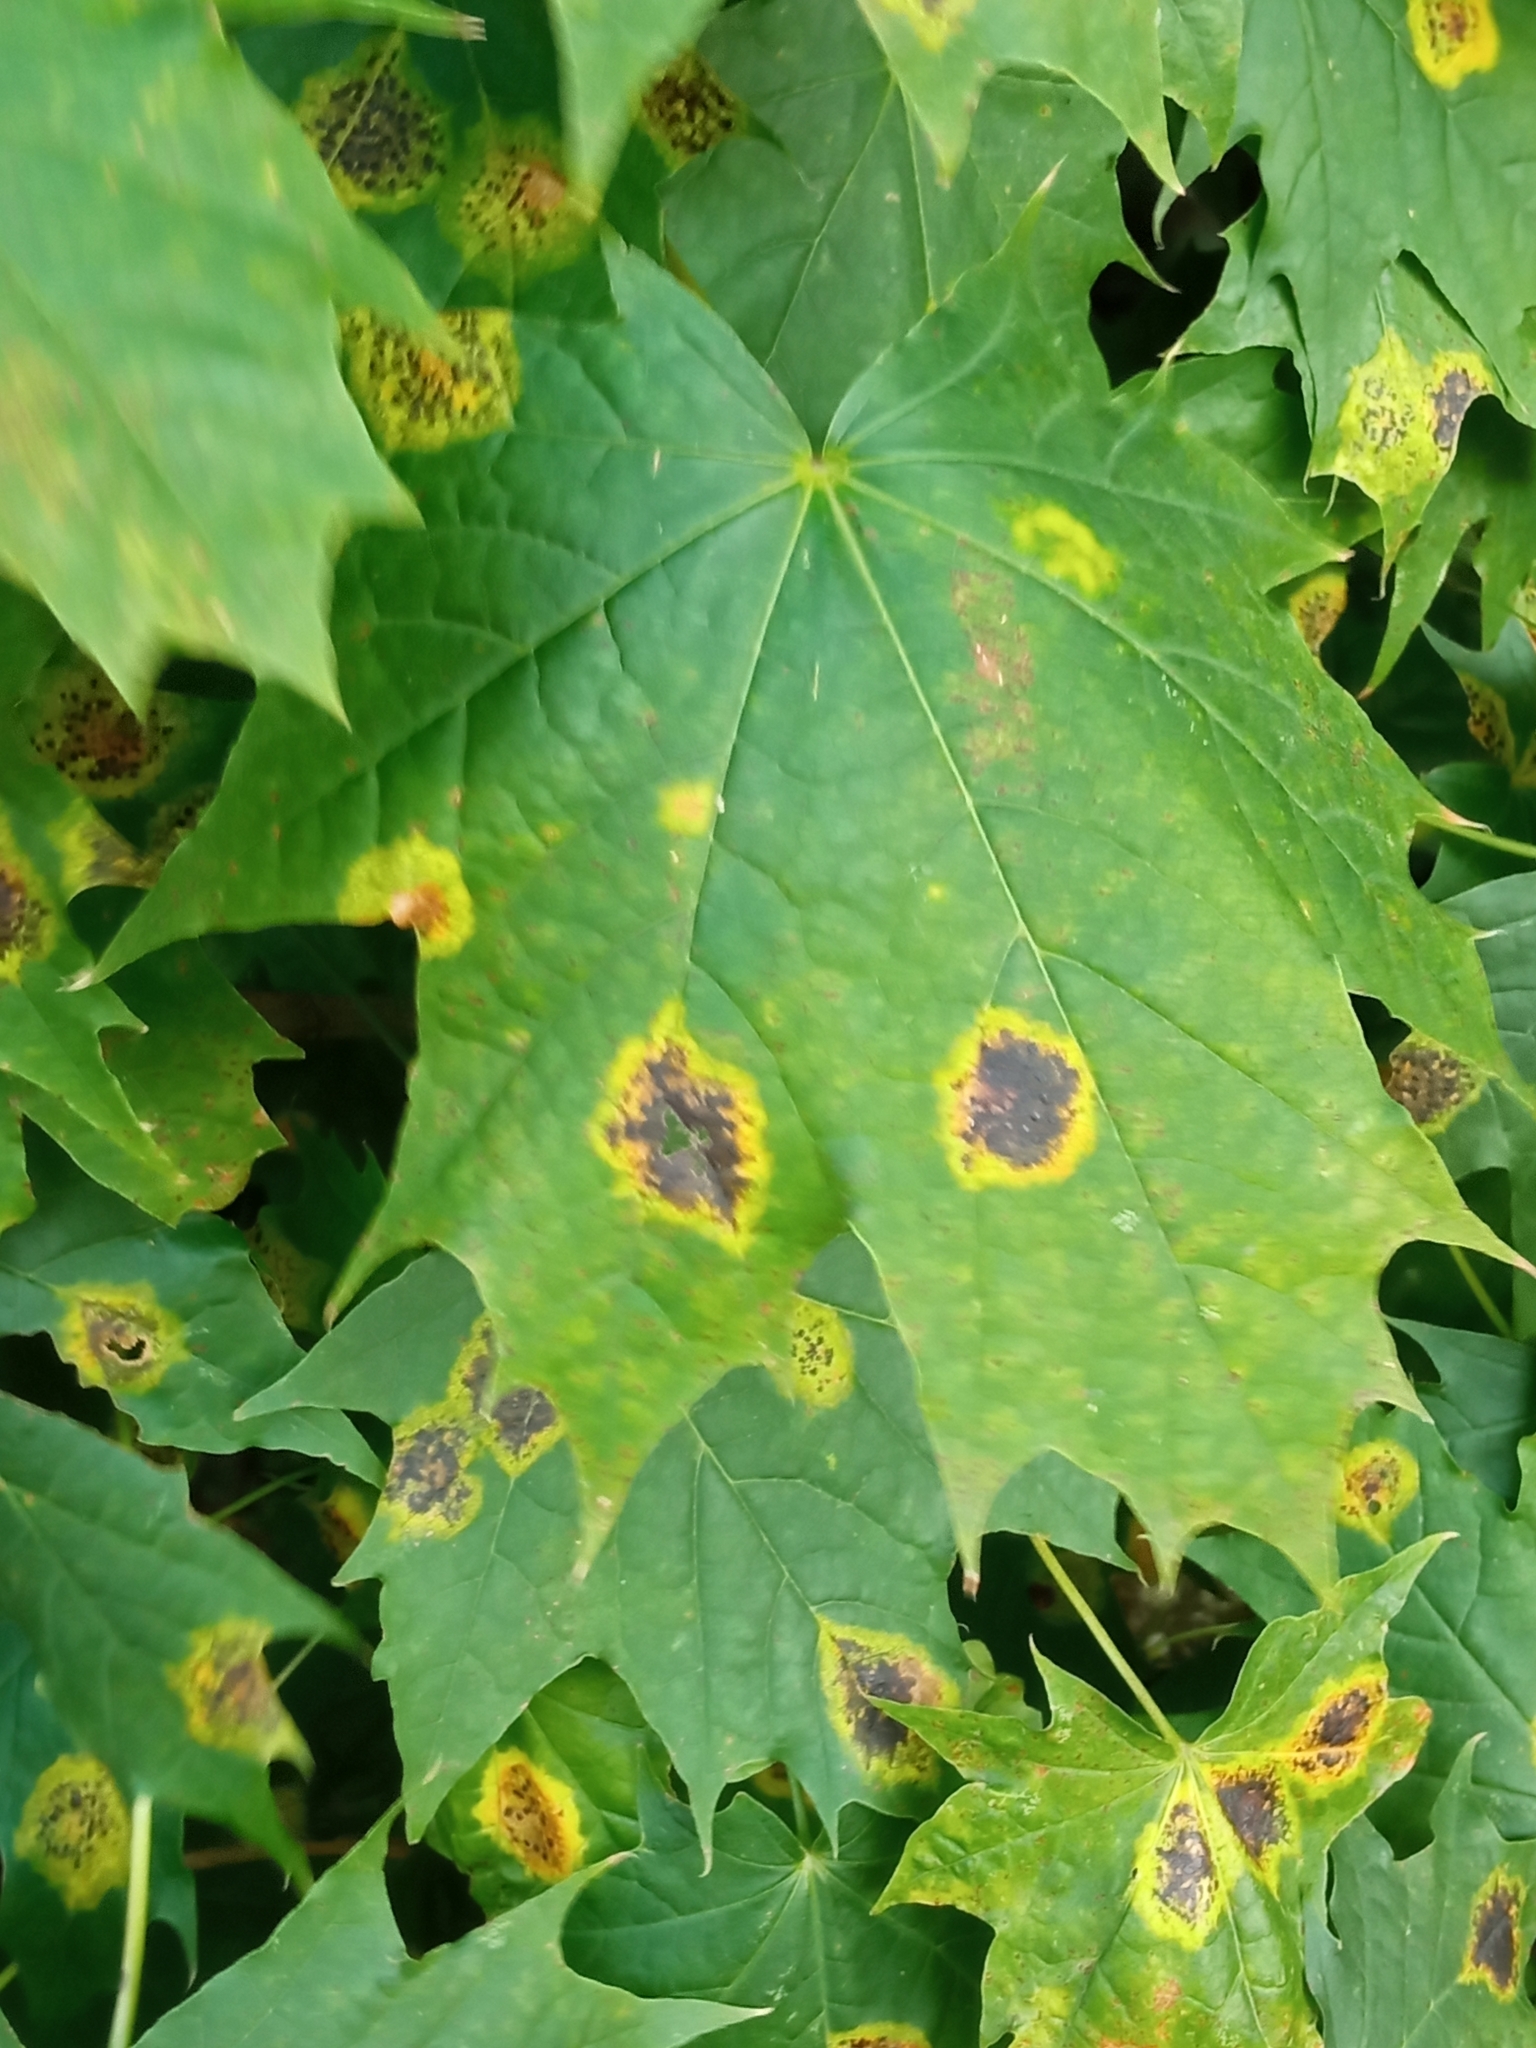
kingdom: Fungi
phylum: Ascomycota
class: Leotiomycetes
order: Rhytismatales
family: Rhytismataceae
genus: Rhytisma
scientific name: Rhytisma acerinum
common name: European tar spot
